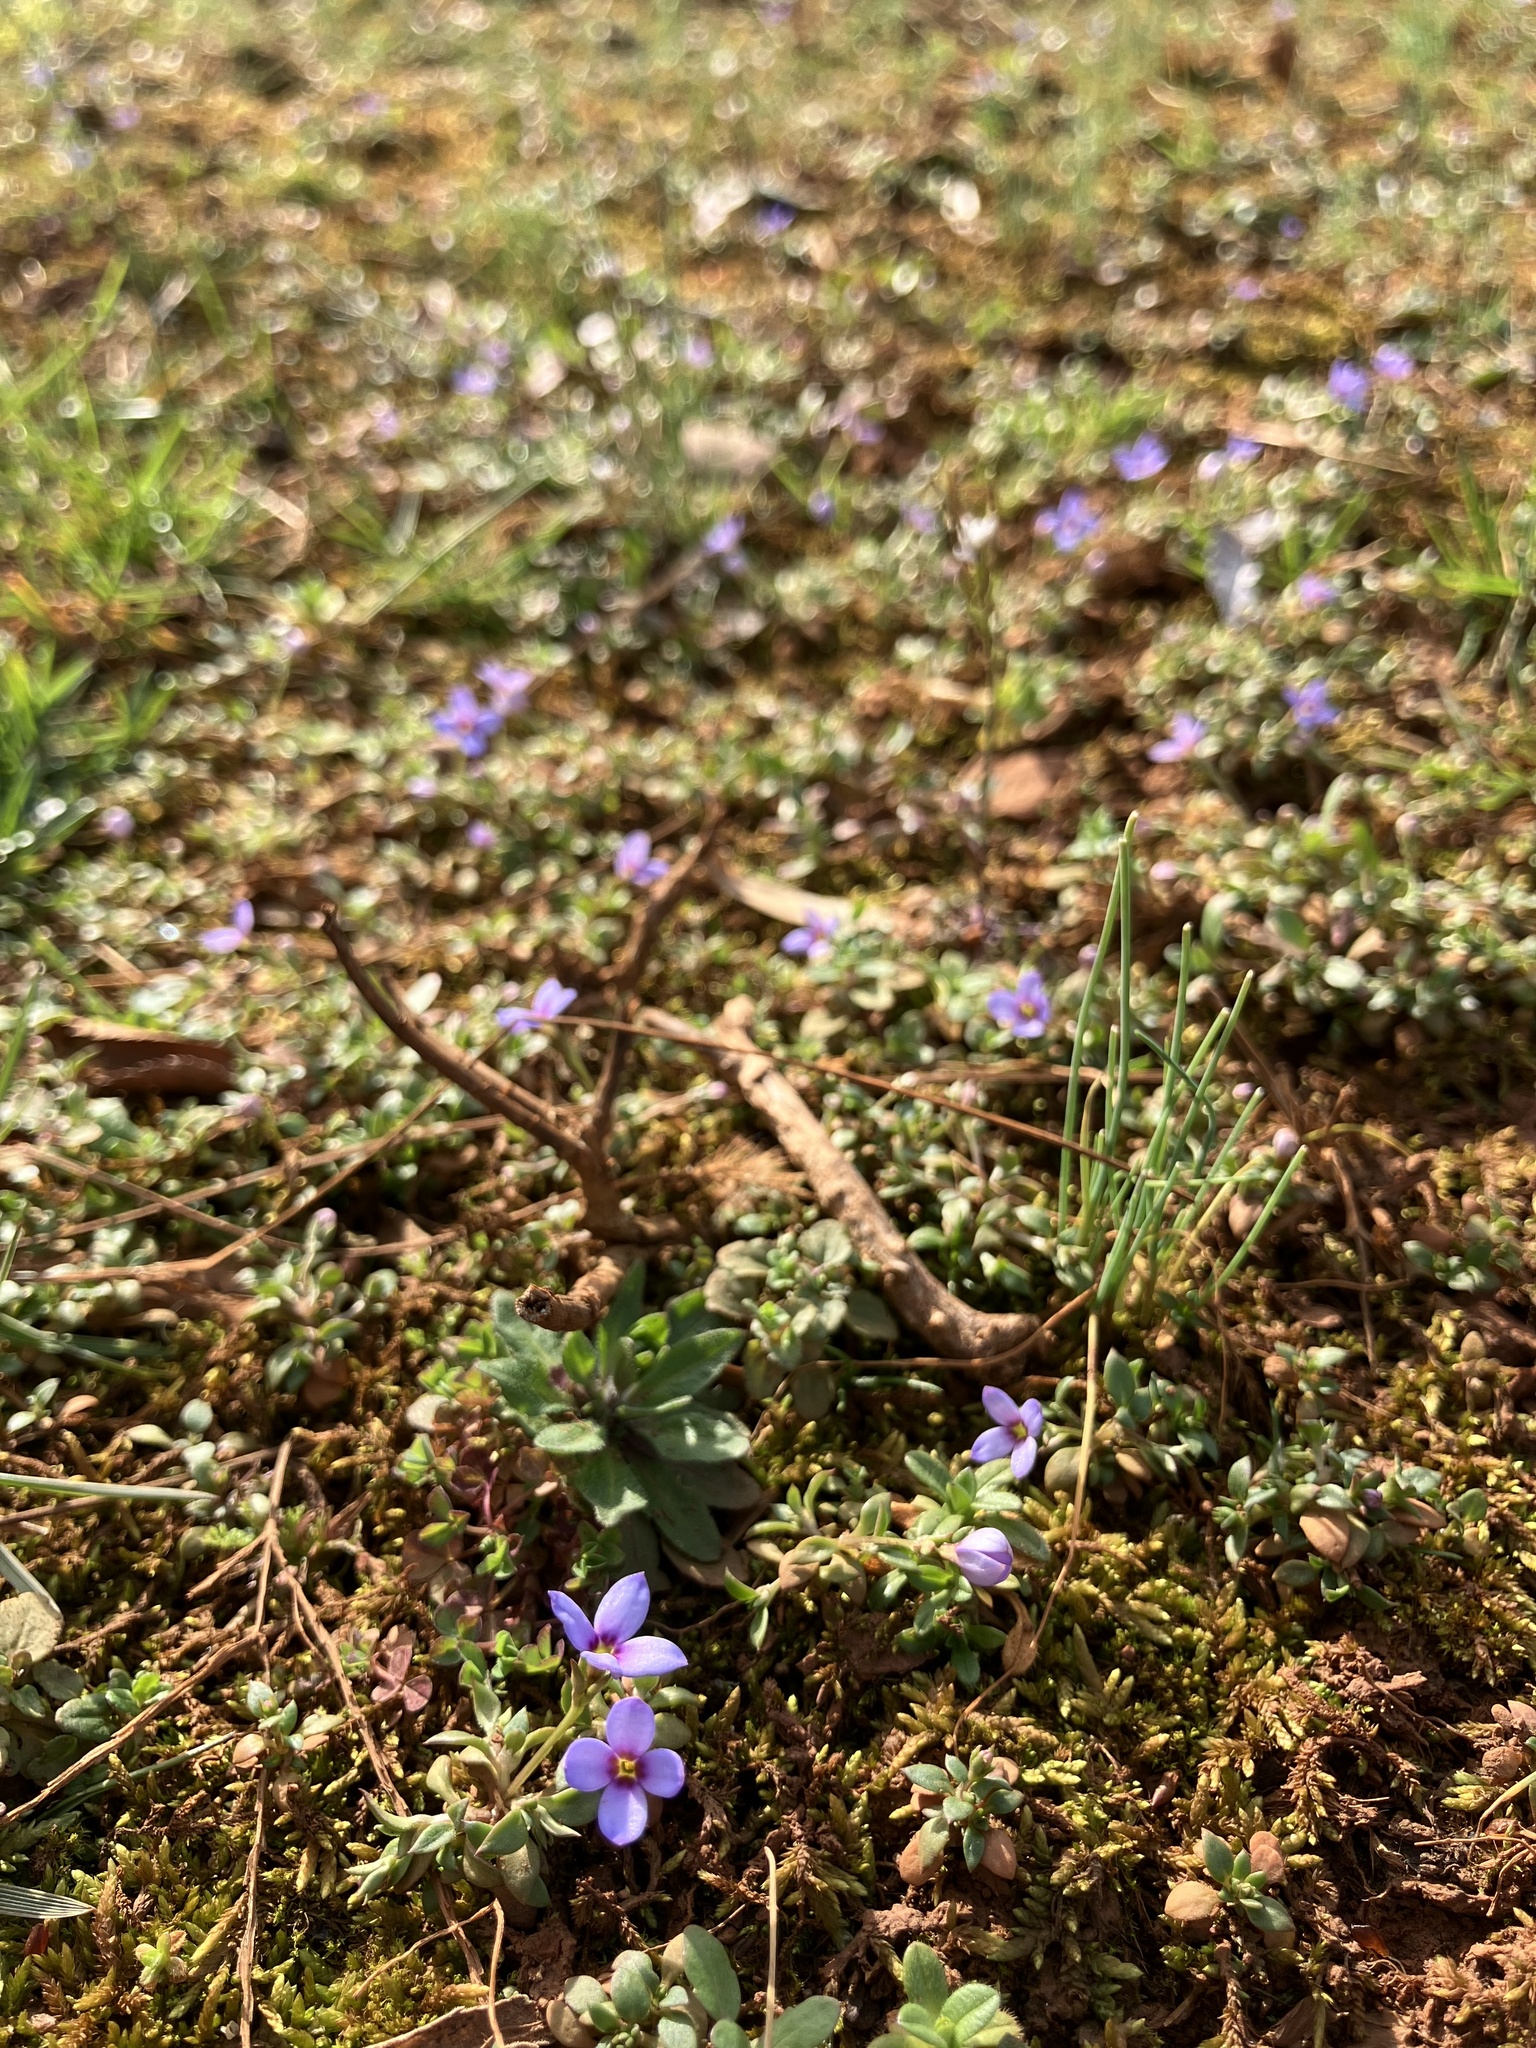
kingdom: Plantae
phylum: Tracheophyta
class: Magnoliopsida
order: Gentianales
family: Rubiaceae
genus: Houstonia
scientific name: Houstonia pusilla
